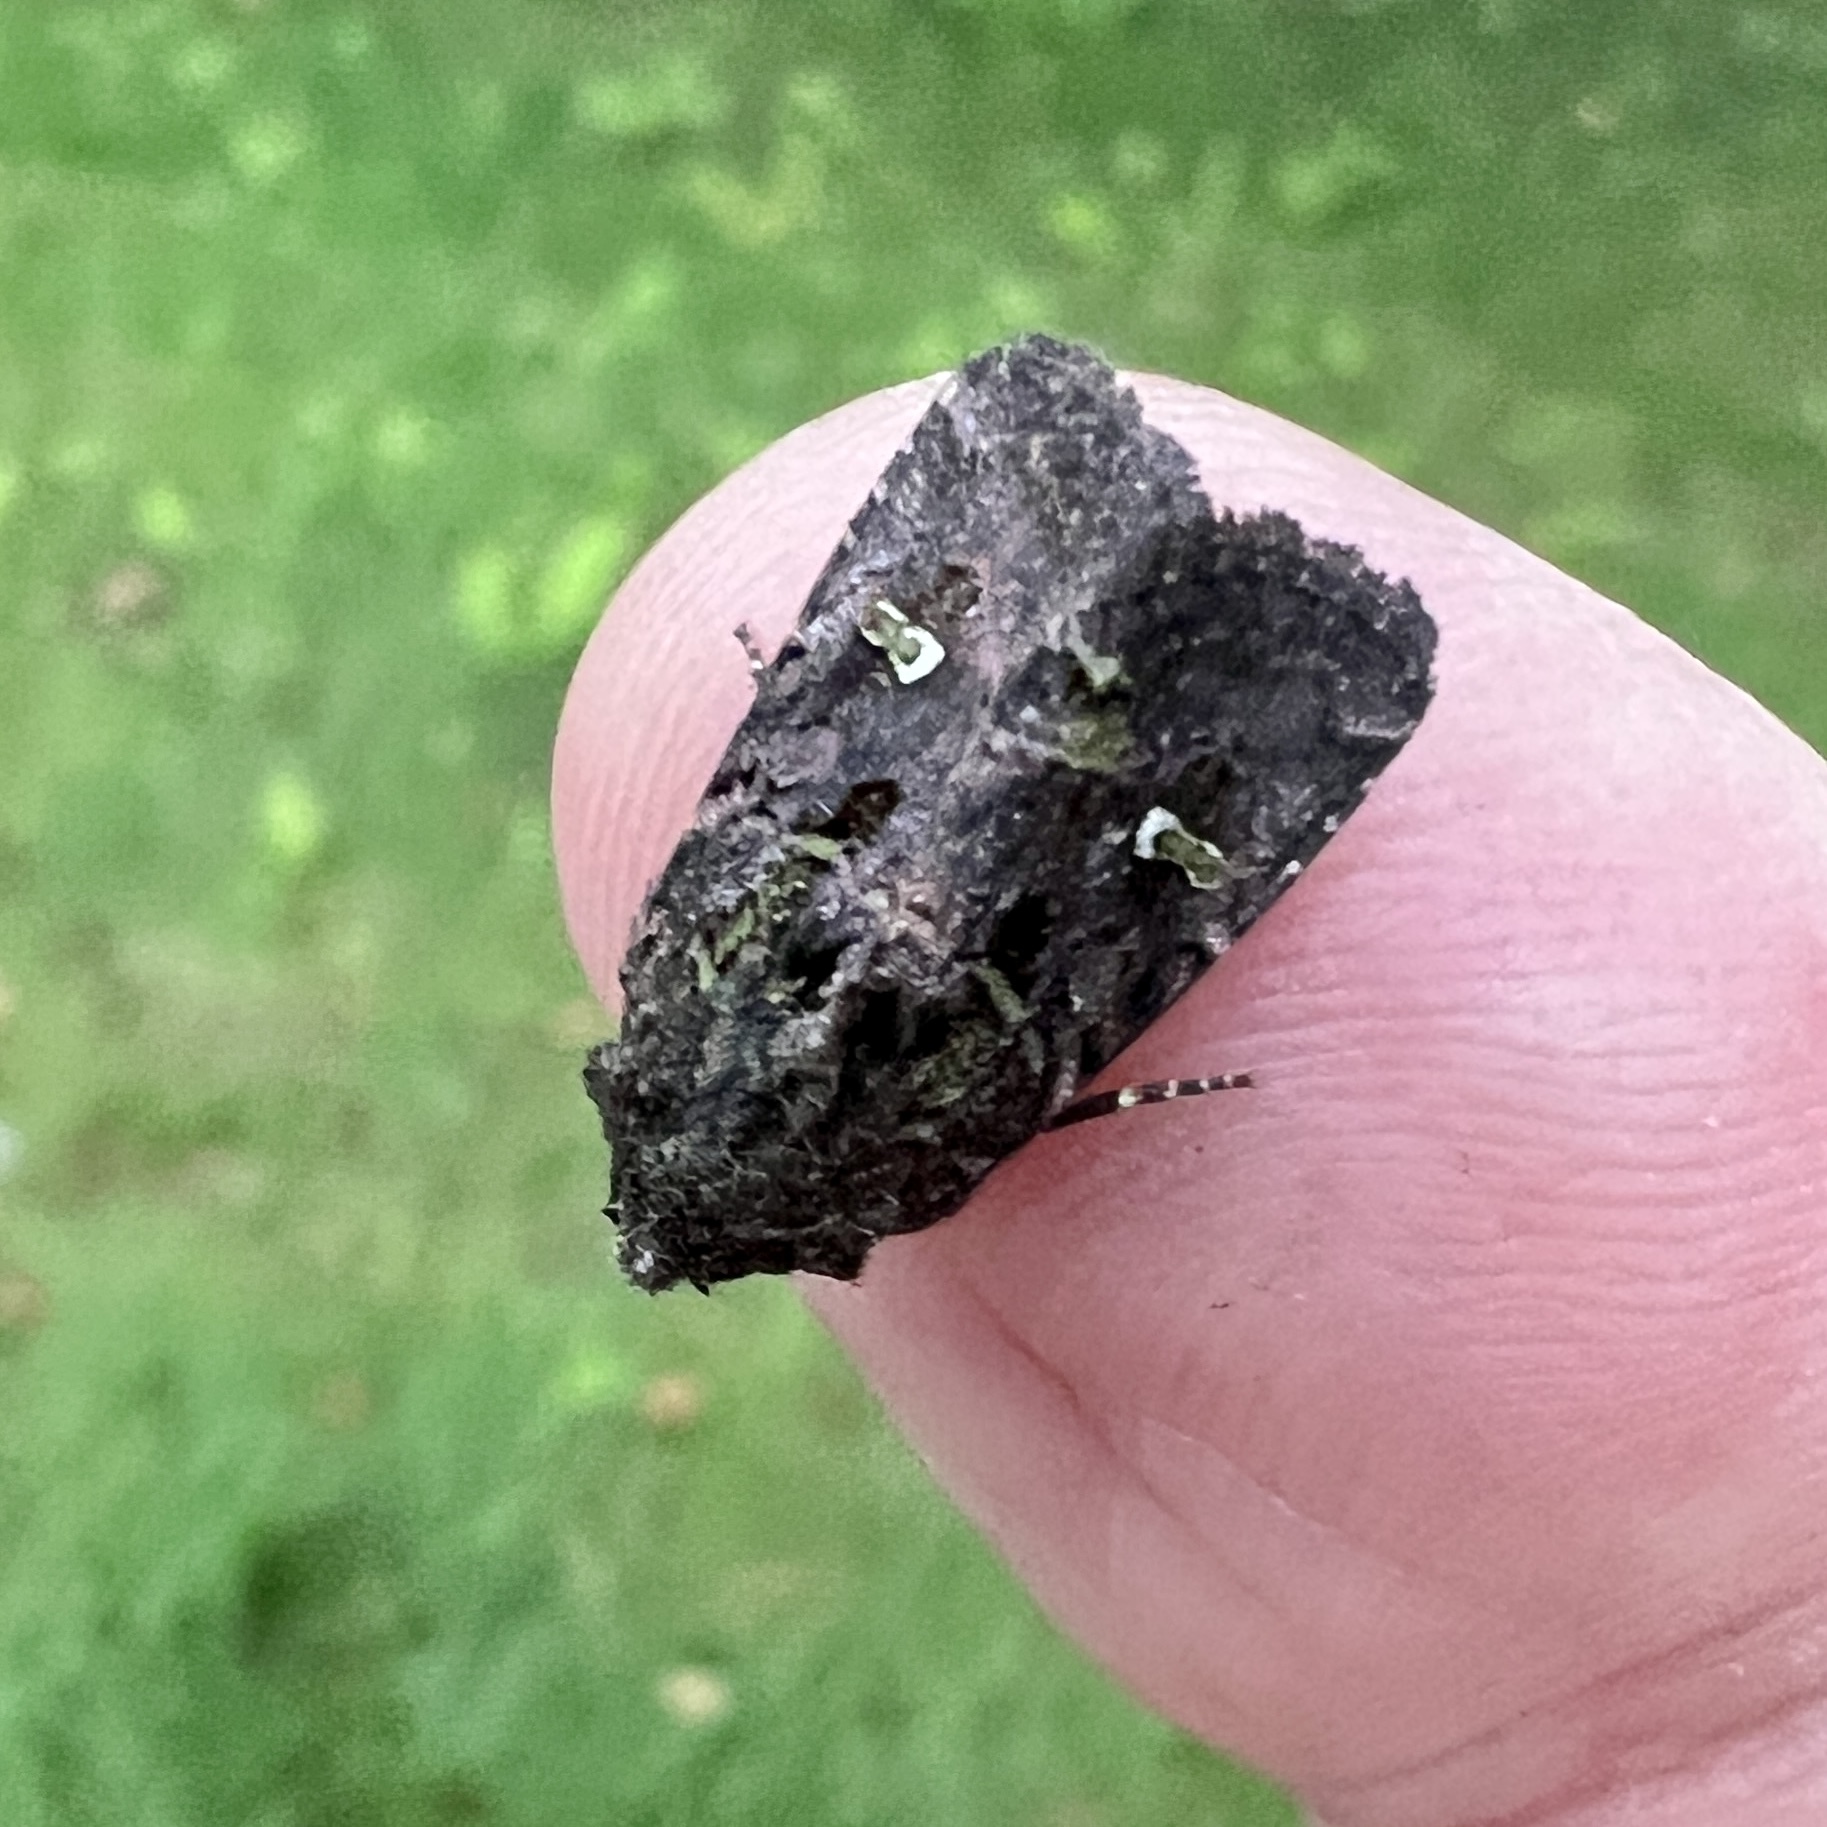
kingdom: Animalia
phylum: Arthropoda
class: Insecta
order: Lepidoptera
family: Noctuidae
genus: Lacinipolia
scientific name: Lacinipolia renigera
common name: Kidney-spotted minor
